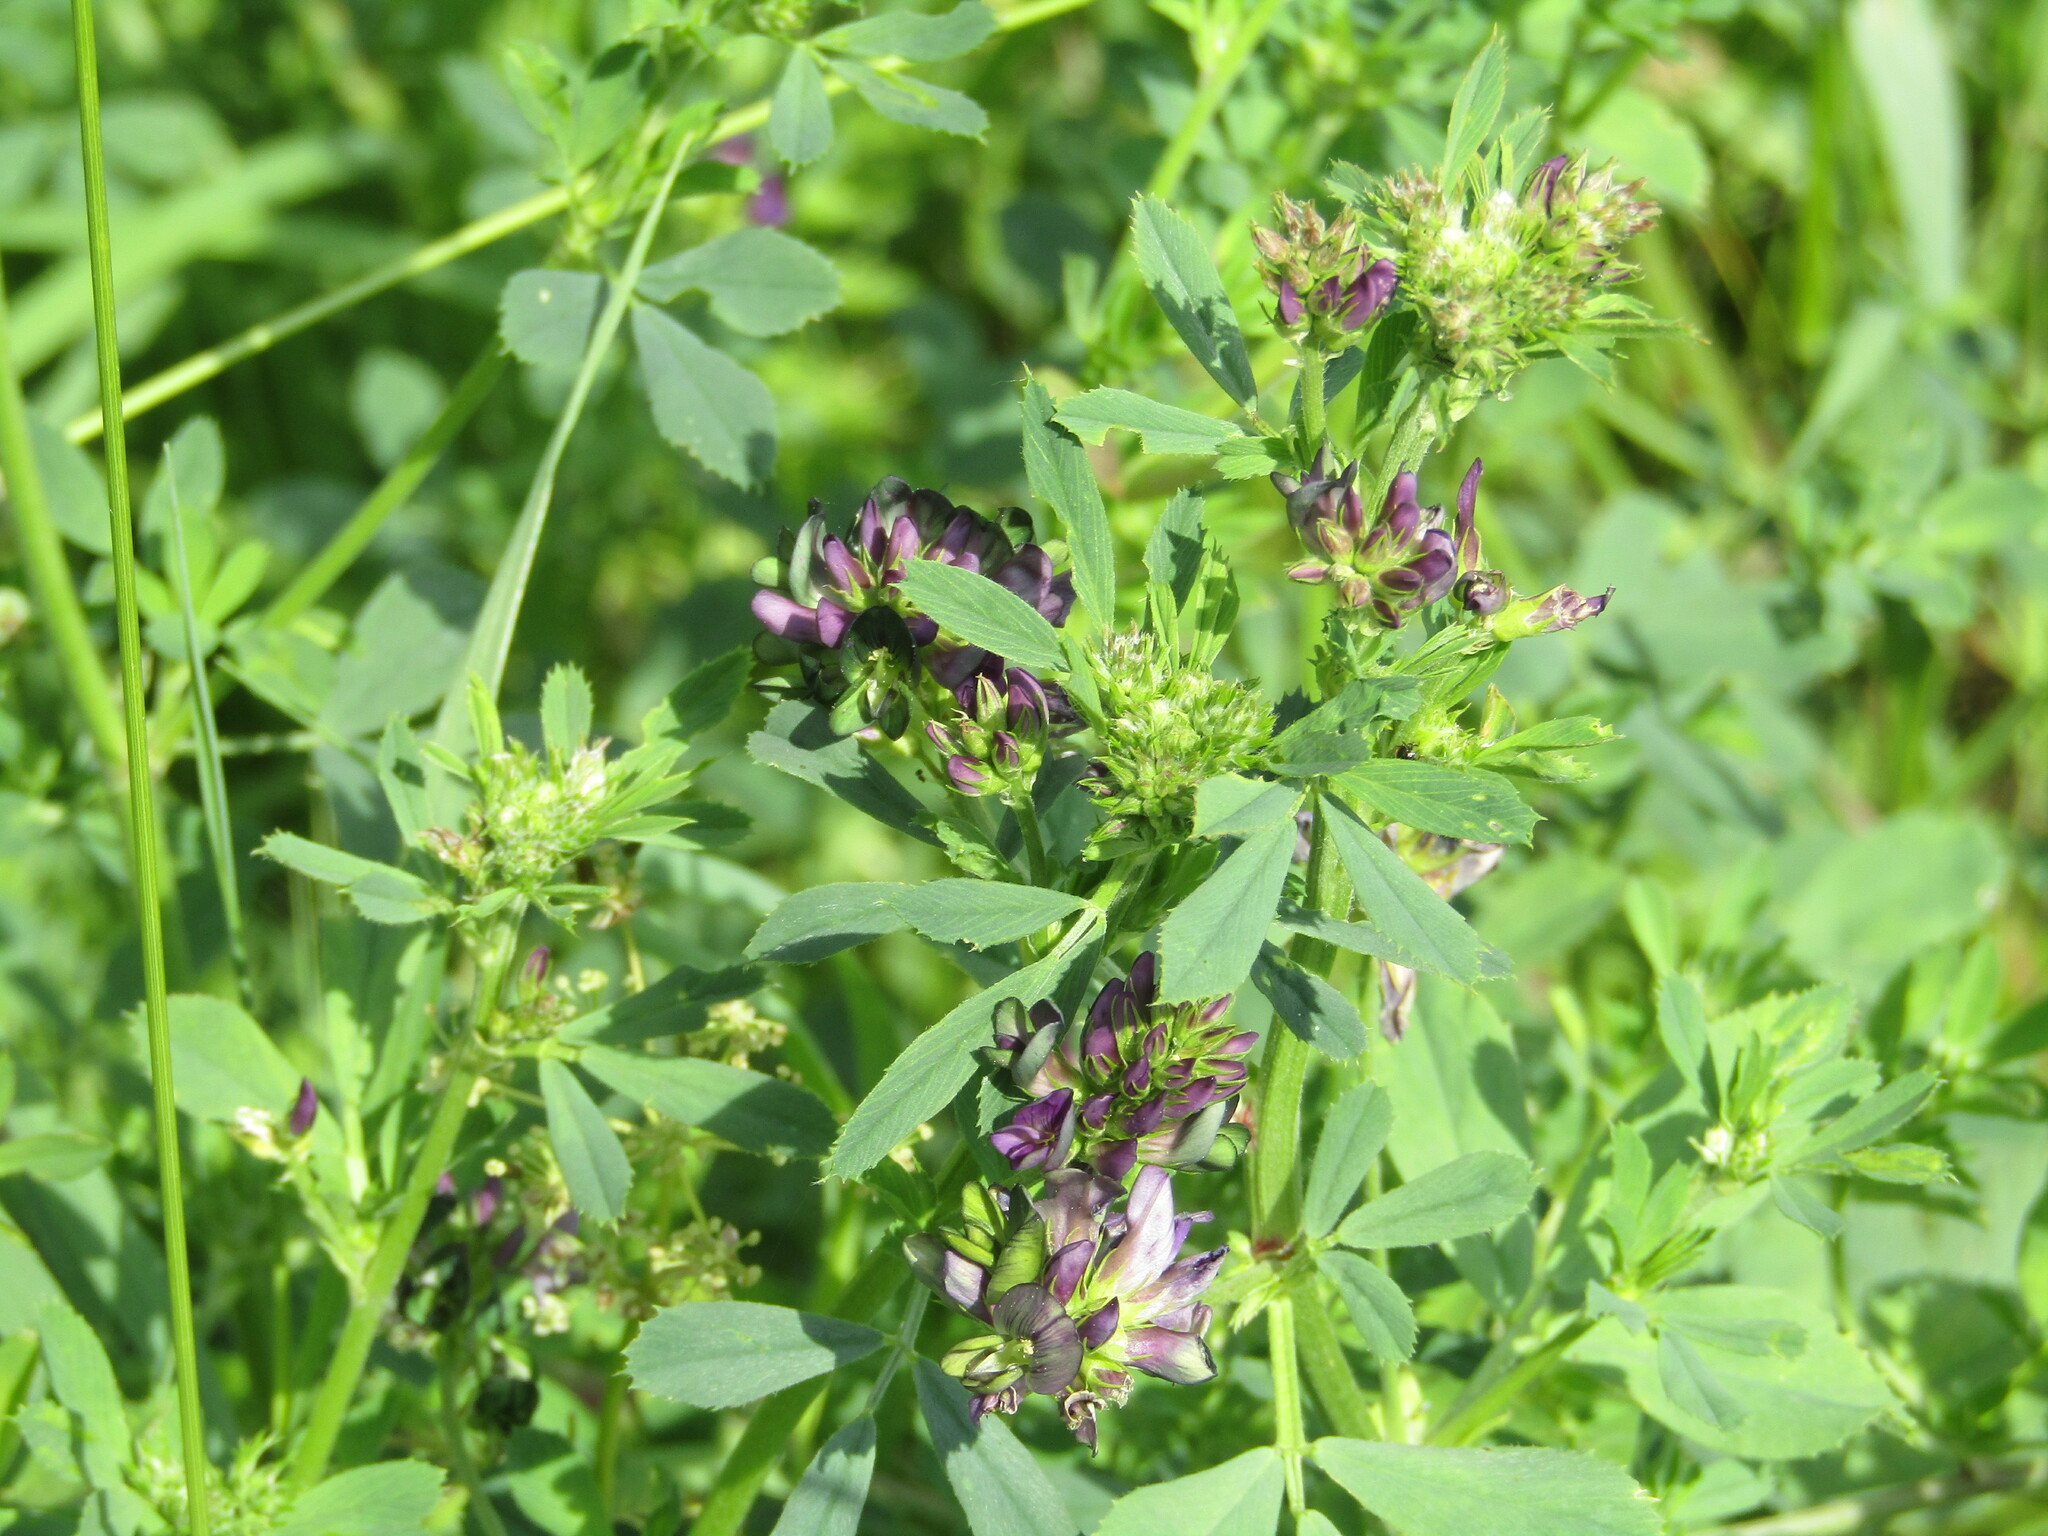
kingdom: Plantae
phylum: Tracheophyta
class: Magnoliopsida
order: Fabales
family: Fabaceae
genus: Medicago
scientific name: Medicago varia
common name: Sand lucerne
